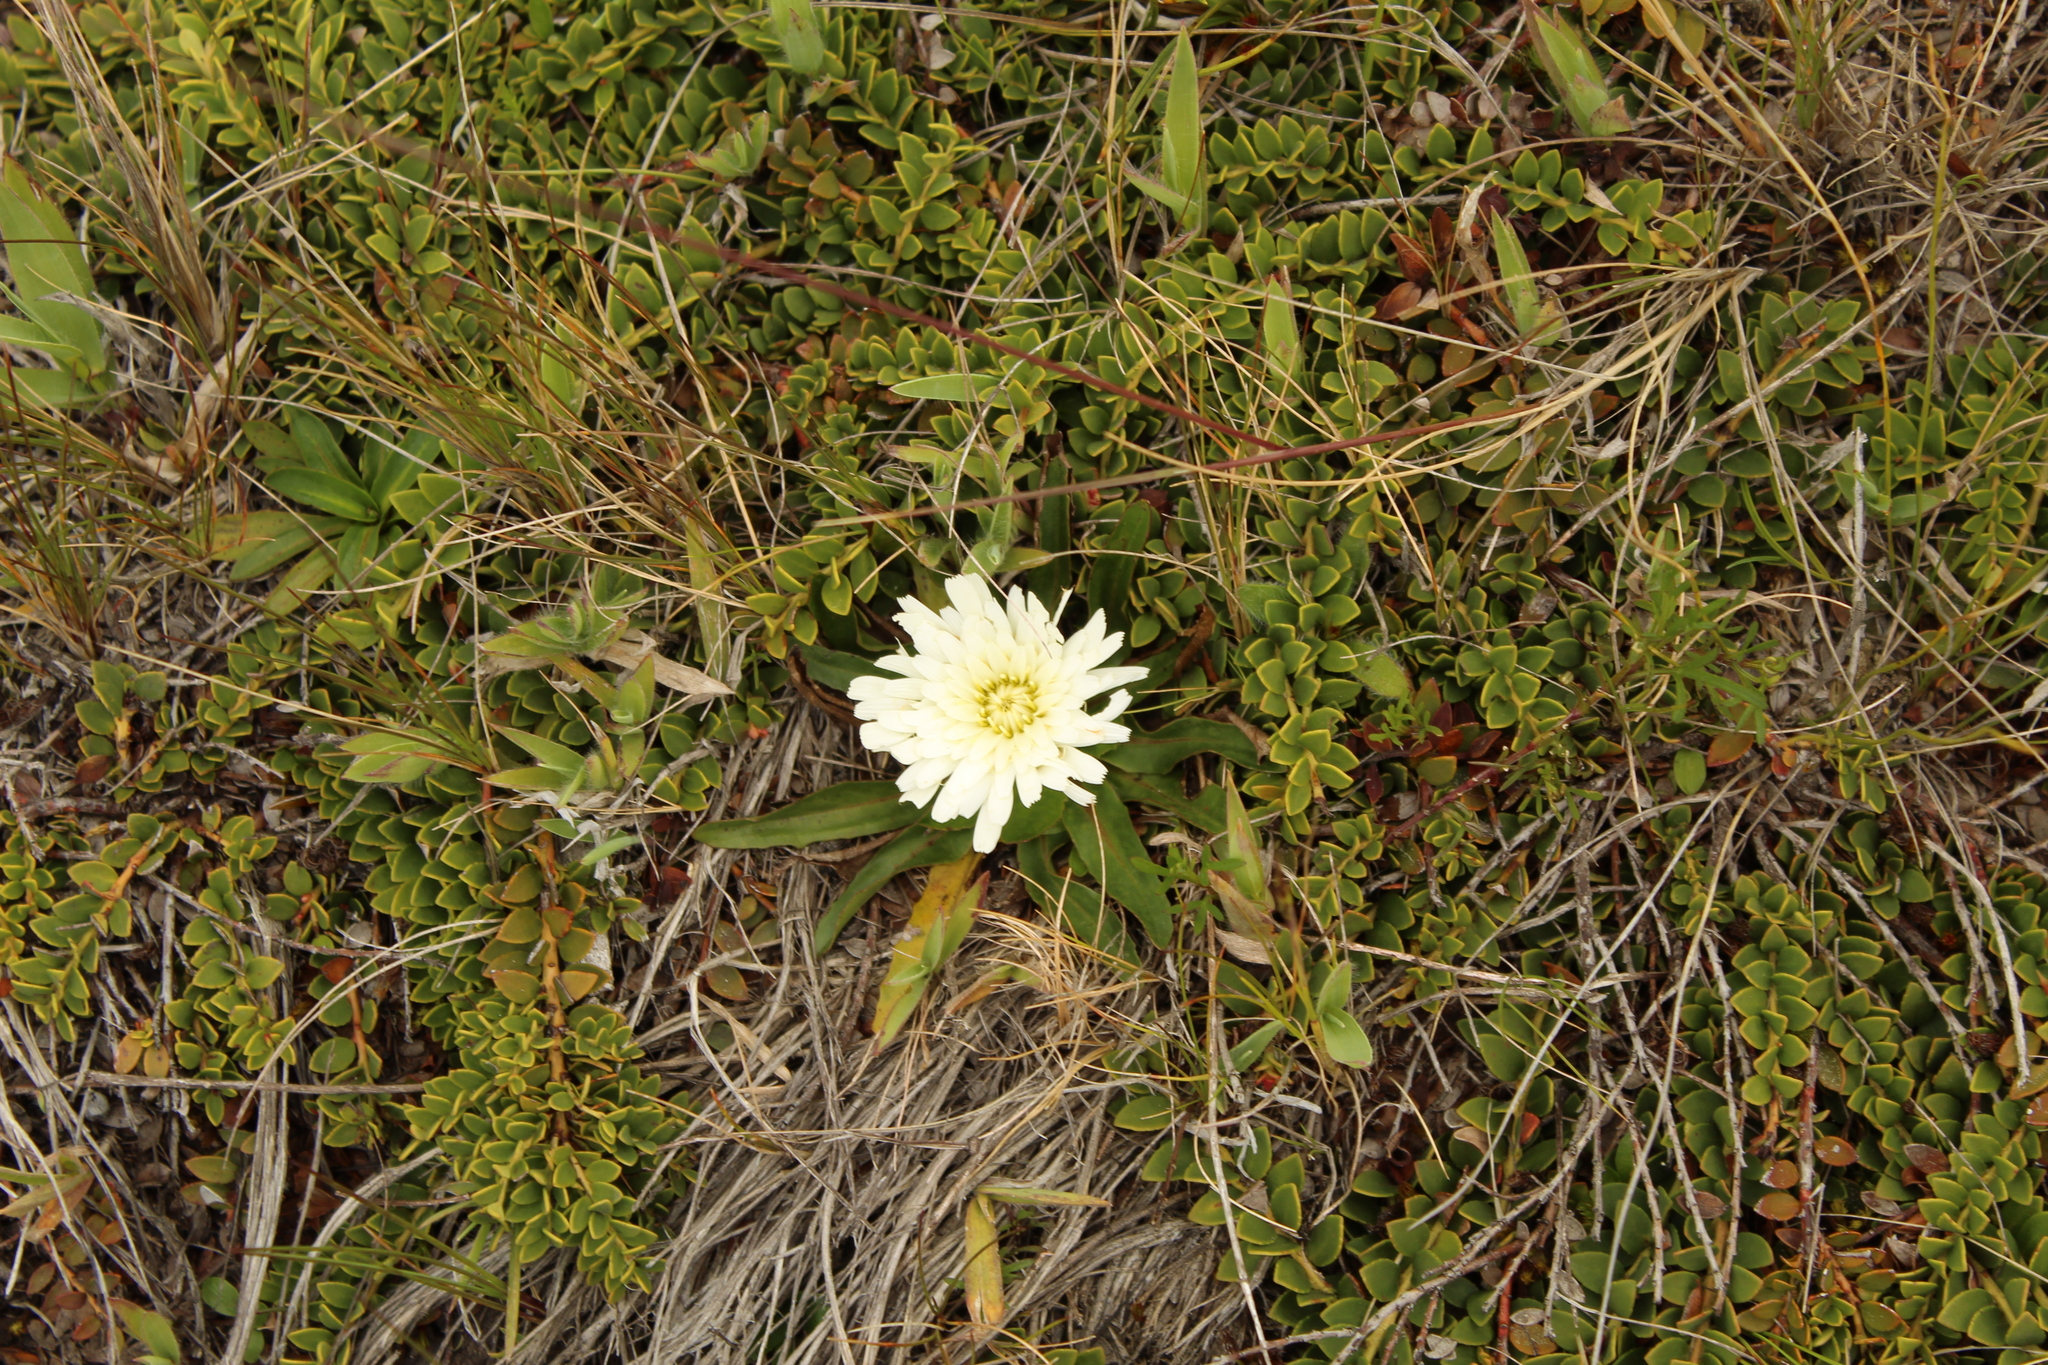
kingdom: Plantae
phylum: Tracheophyta
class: Magnoliopsida
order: Asterales
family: Asteraceae
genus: Hypochaeris
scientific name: Hypochaeris sessiliflora
